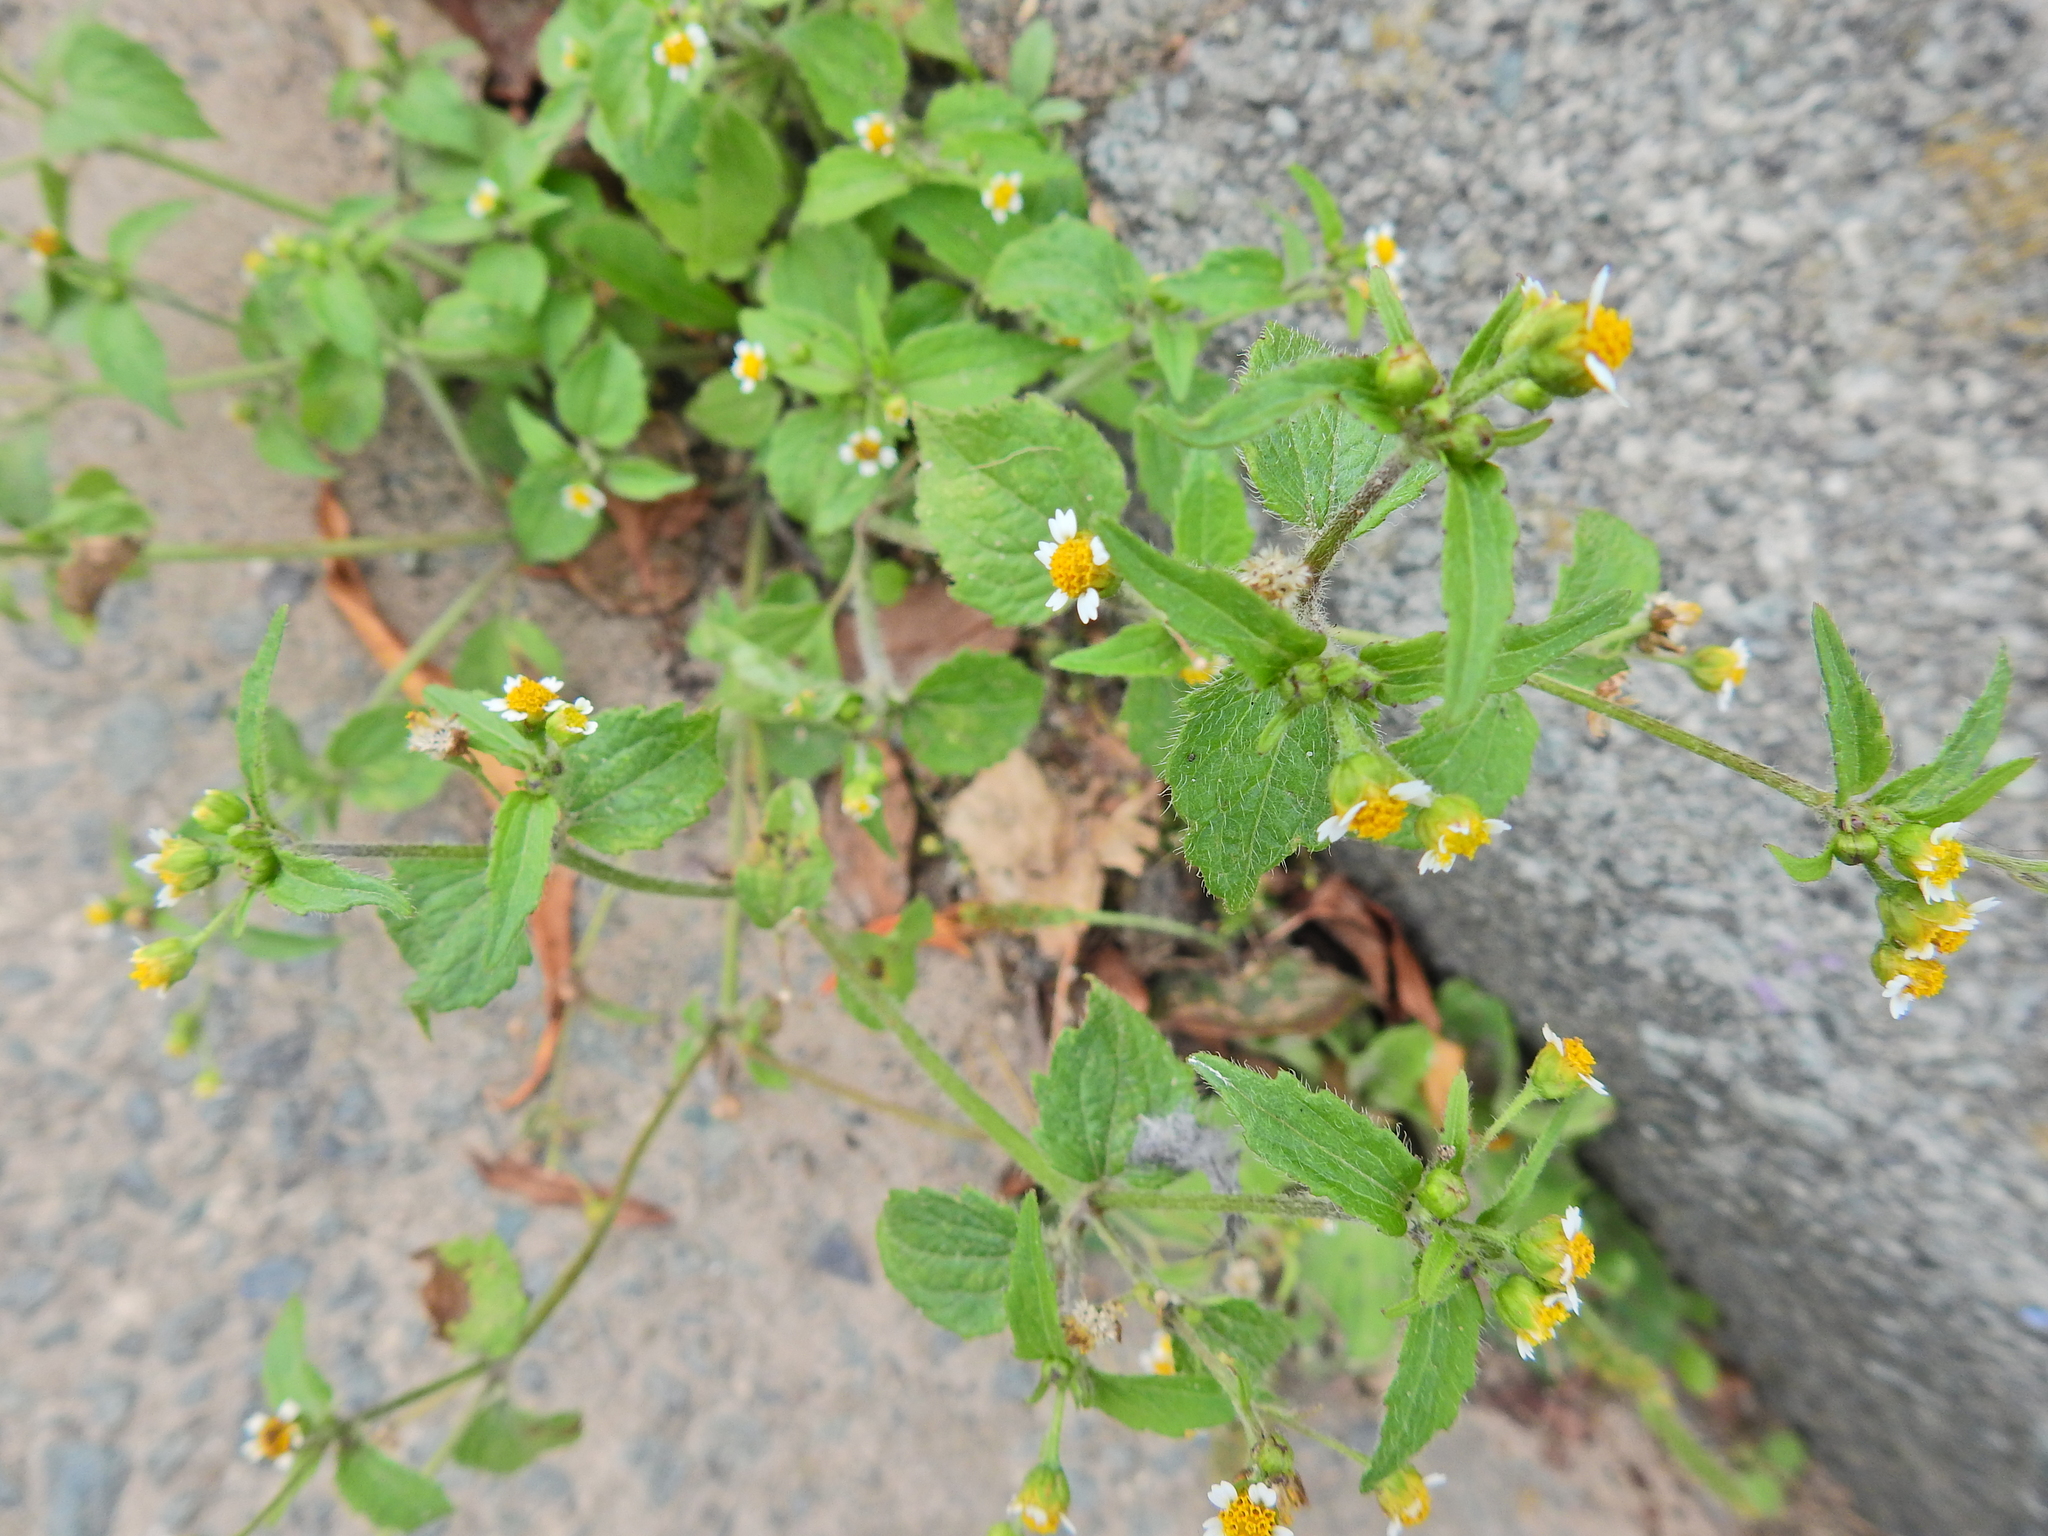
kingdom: Plantae
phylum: Tracheophyta
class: Magnoliopsida
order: Asterales
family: Asteraceae
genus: Galinsoga
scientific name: Galinsoga quadriradiata
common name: Shaggy soldier
